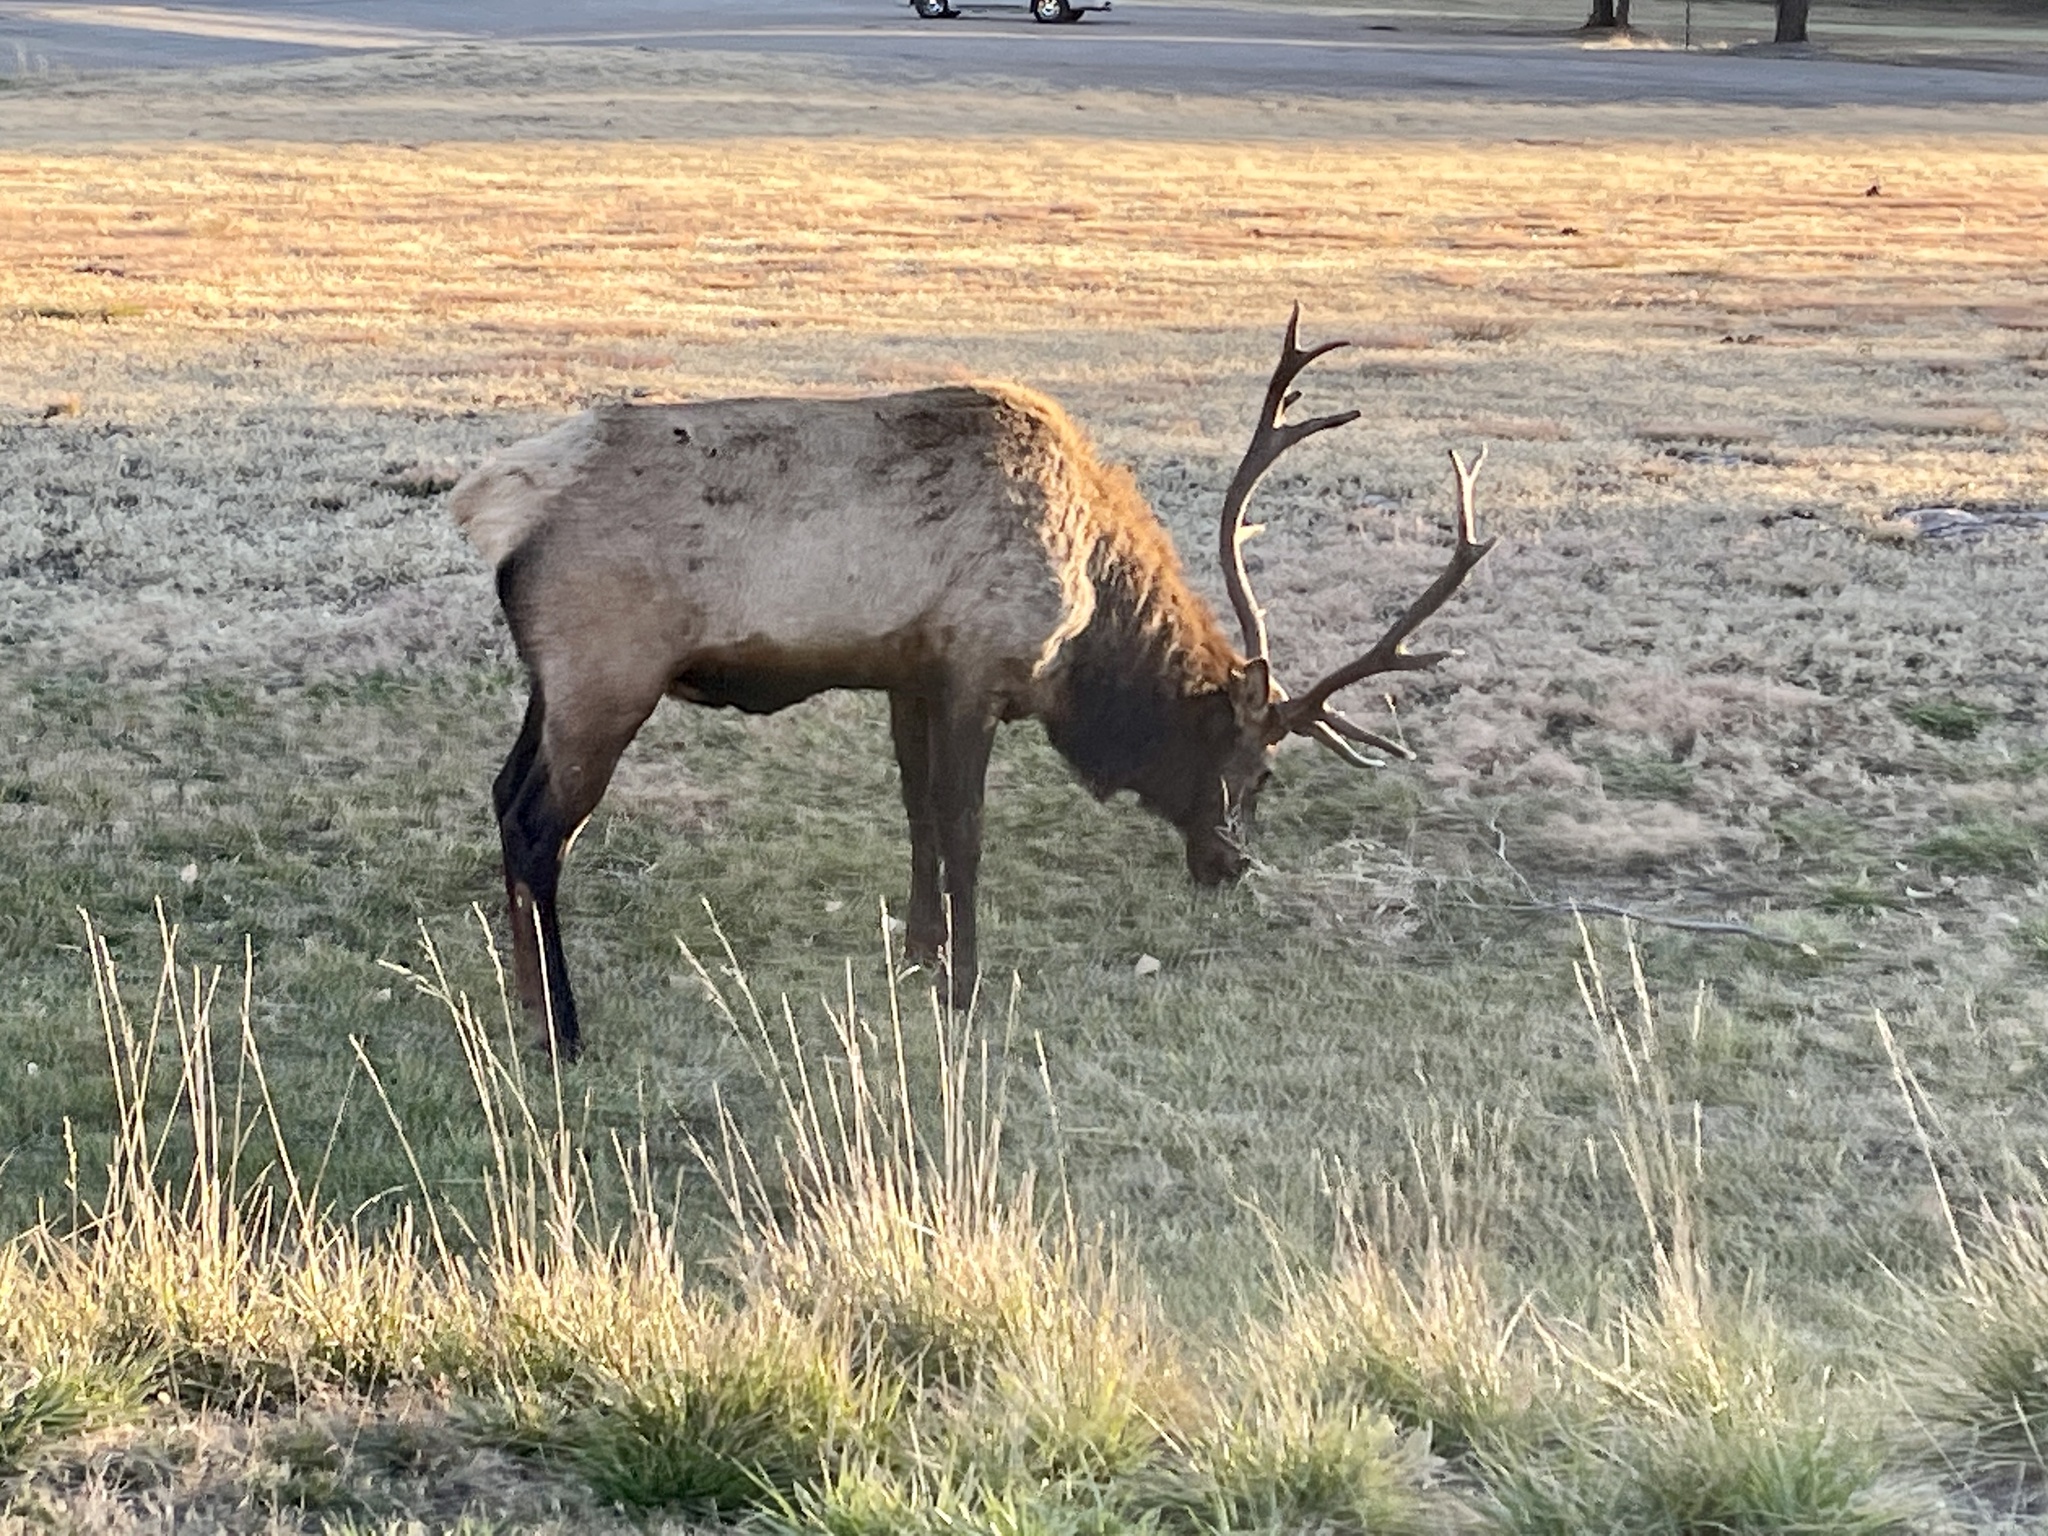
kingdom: Animalia
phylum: Chordata
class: Mammalia
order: Artiodactyla
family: Cervidae
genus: Cervus
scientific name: Cervus elaphus
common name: Red deer
